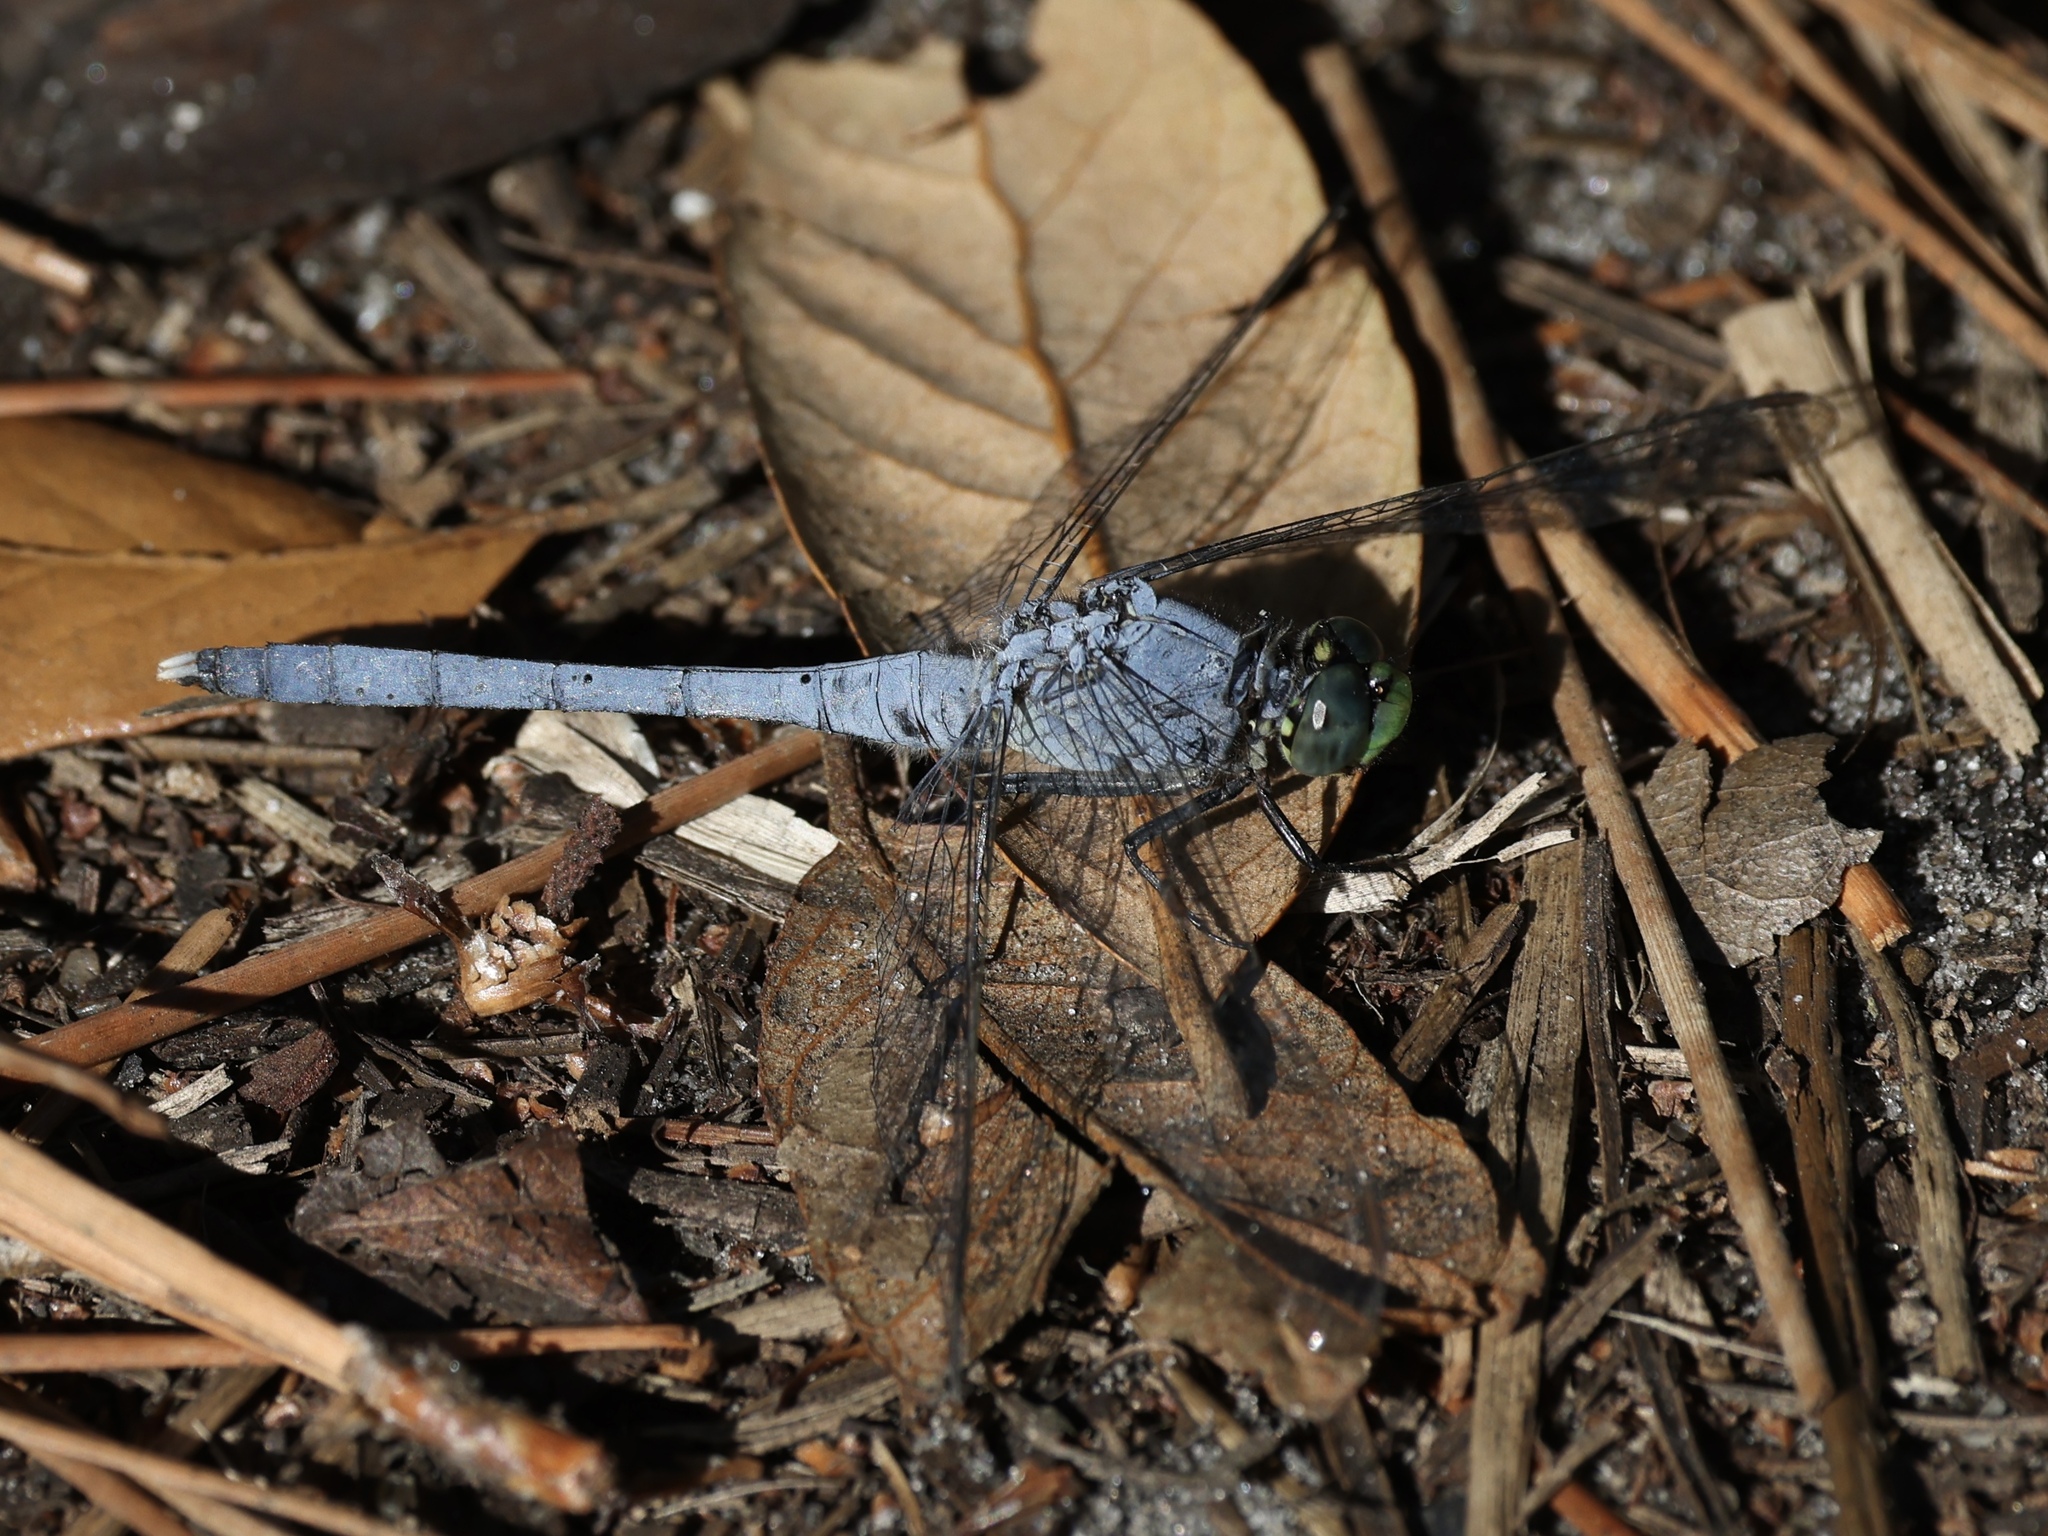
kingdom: Animalia
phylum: Arthropoda
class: Insecta
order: Odonata
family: Libellulidae
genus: Erythemis
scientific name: Erythemis simplicicollis
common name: Eastern pondhawk
